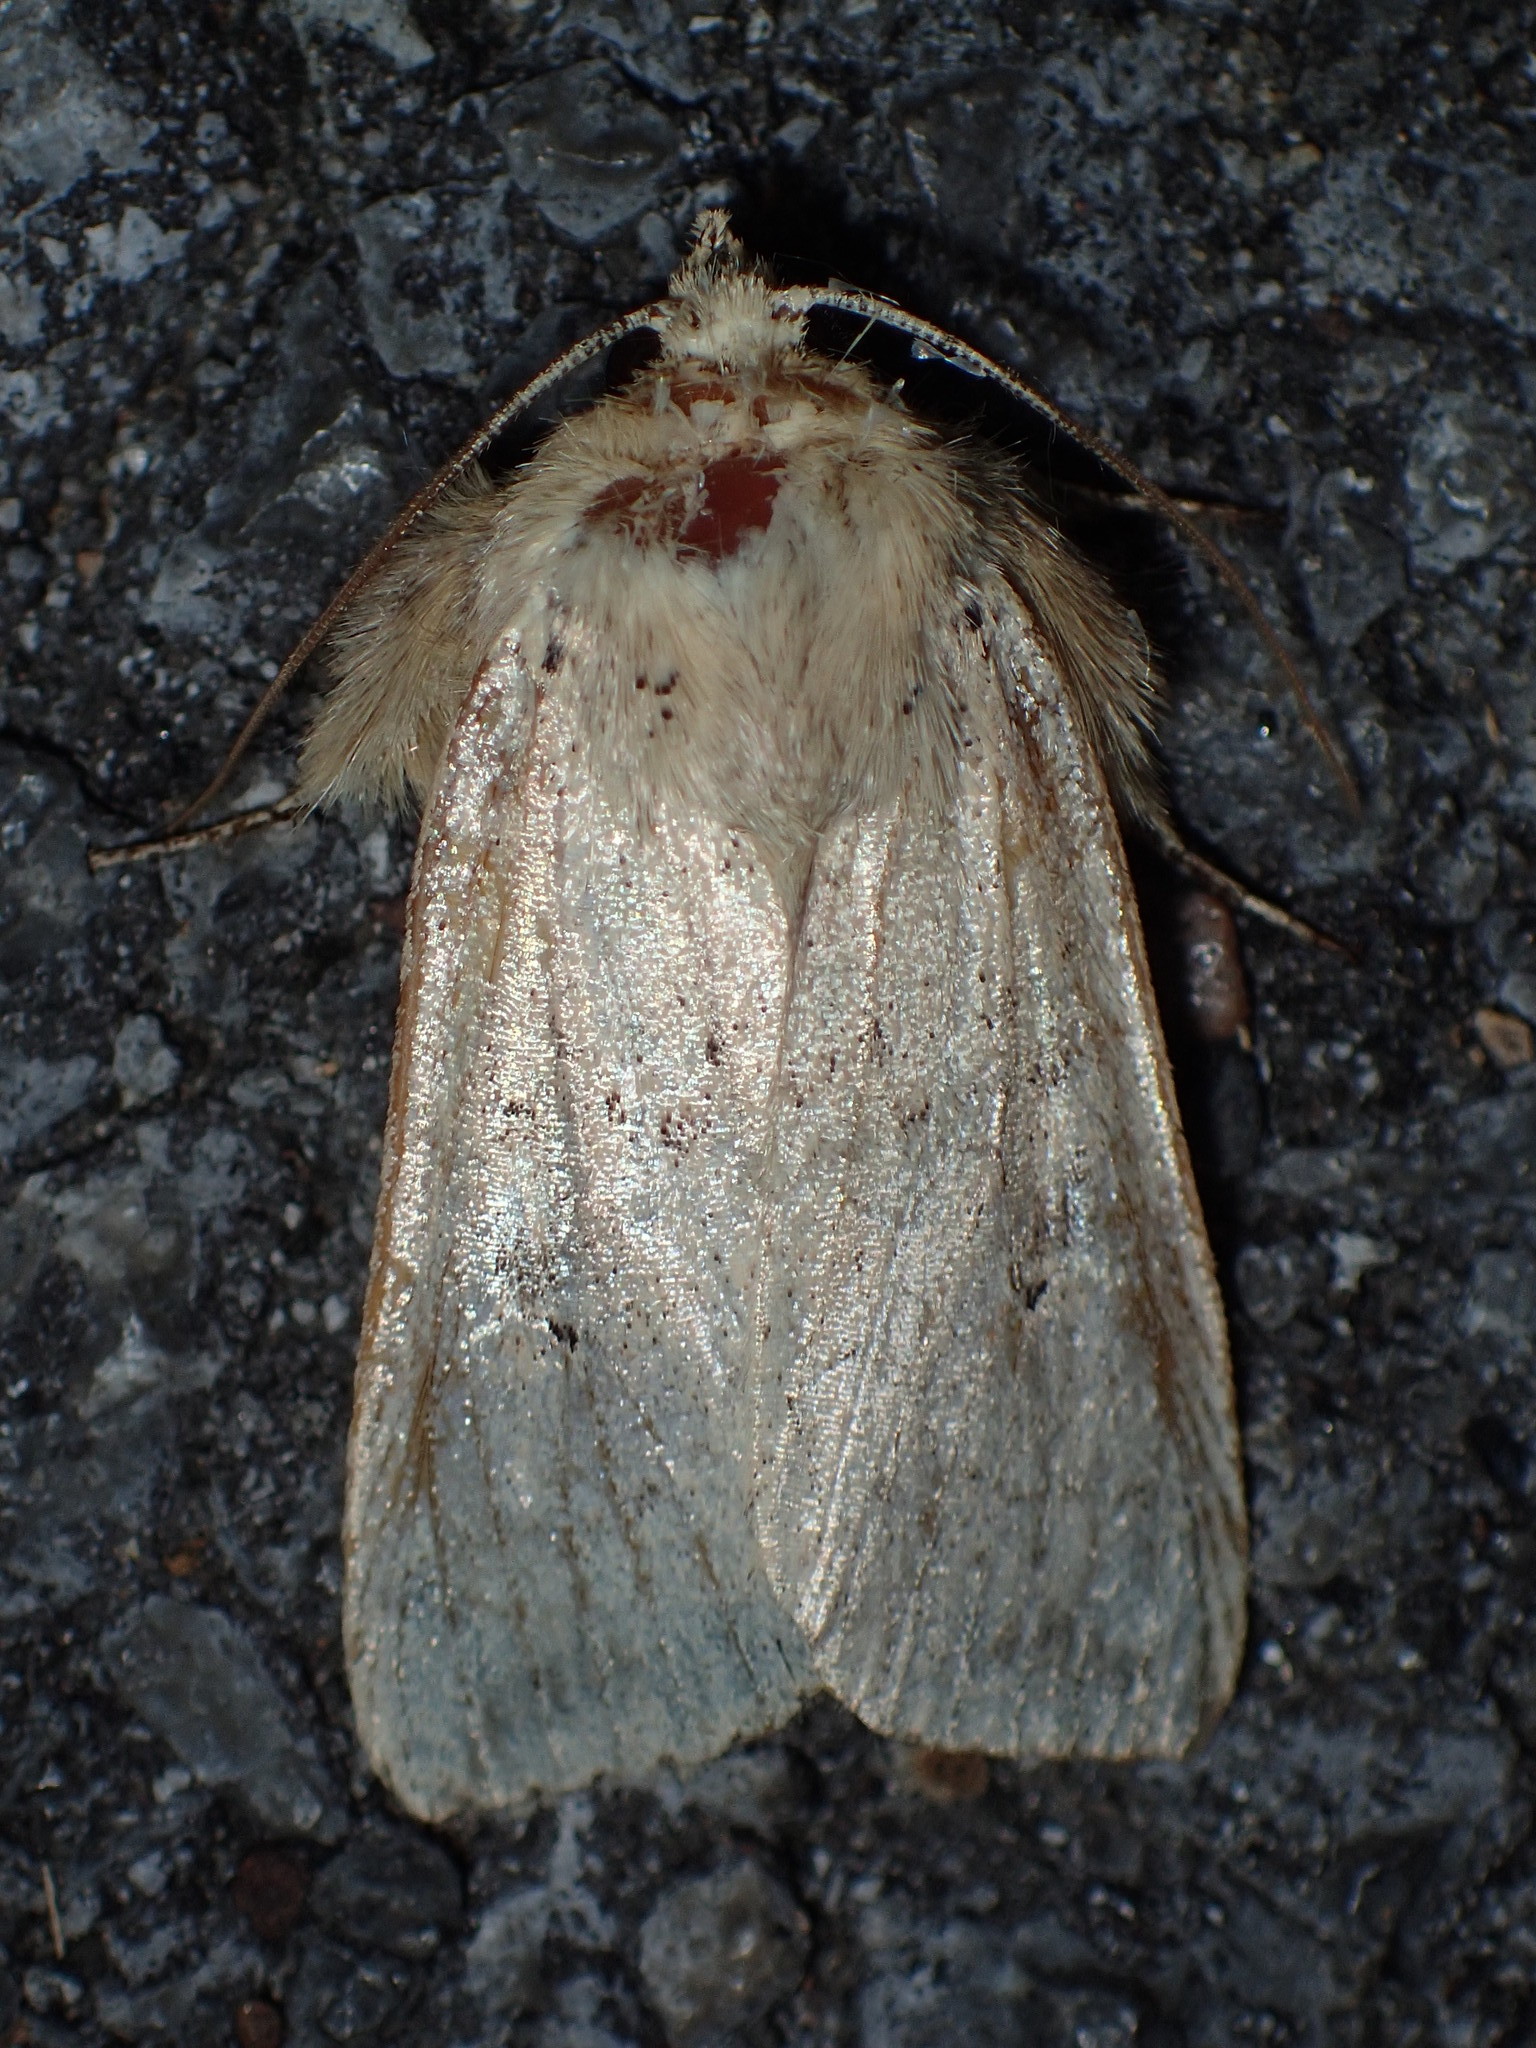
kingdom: Animalia
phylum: Arthropoda
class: Insecta
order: Lepidoptera
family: Noctuidae
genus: Leucania
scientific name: Leucania
